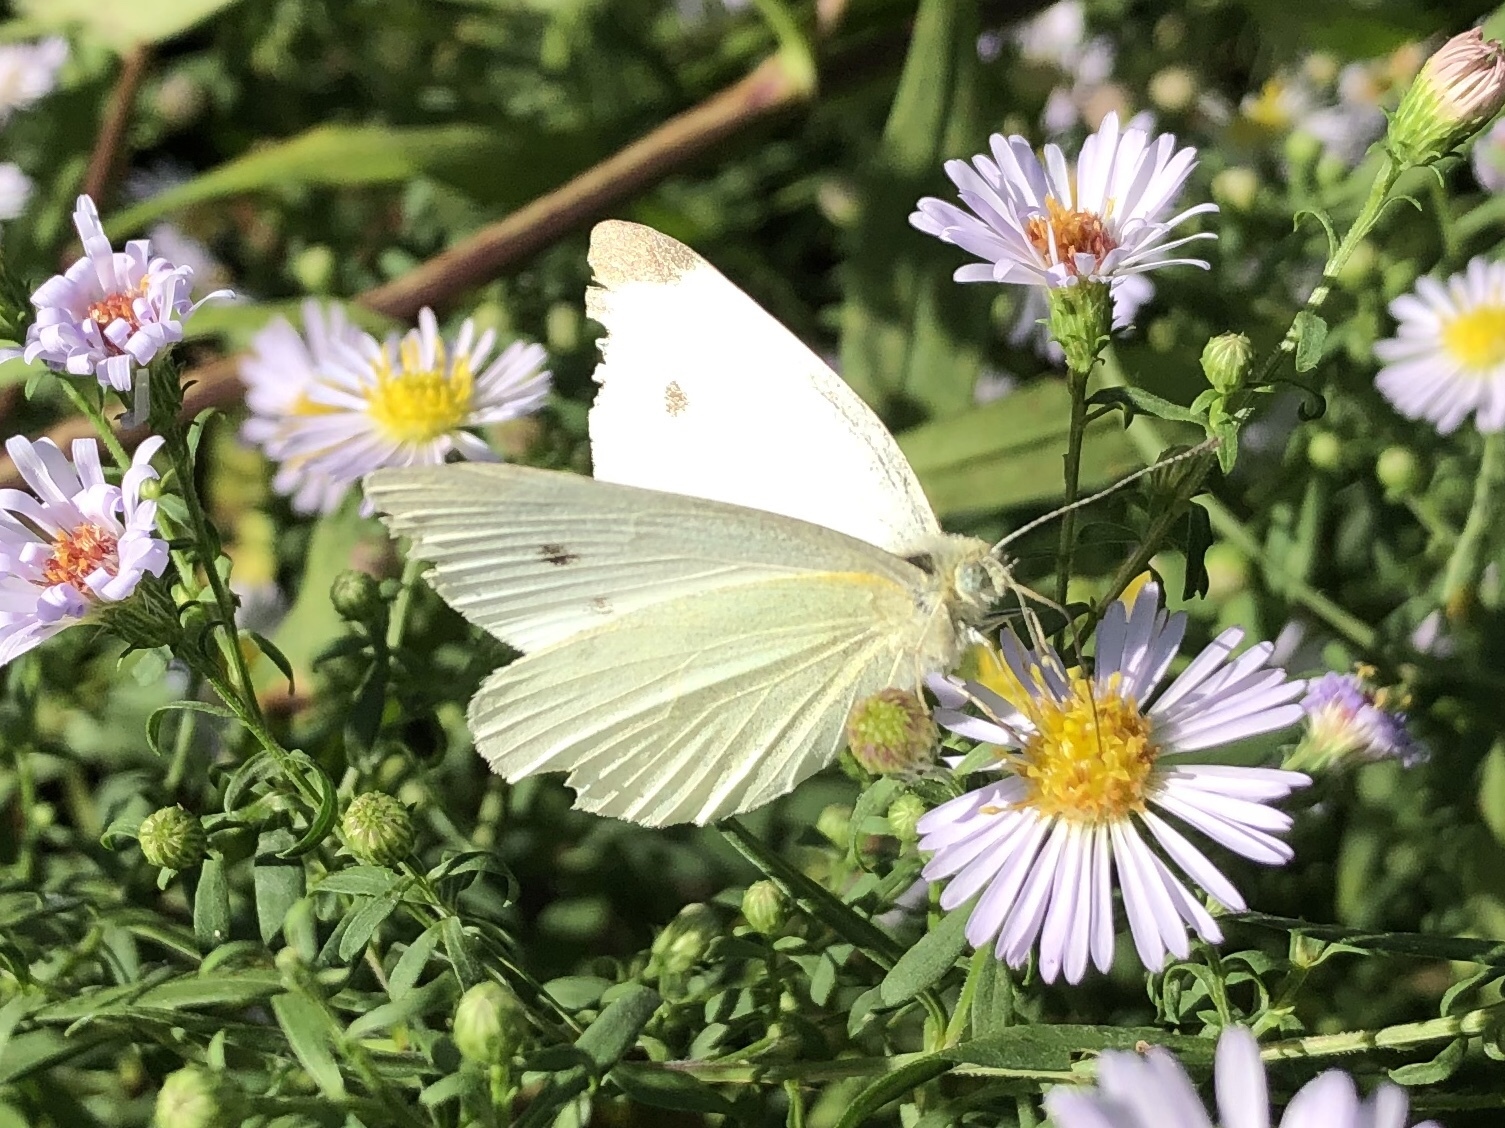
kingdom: Animalia
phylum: Arthropoda
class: Insecta
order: Lepidoptera
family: Pieridae
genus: Pieris
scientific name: Pieris rapae
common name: Small white
